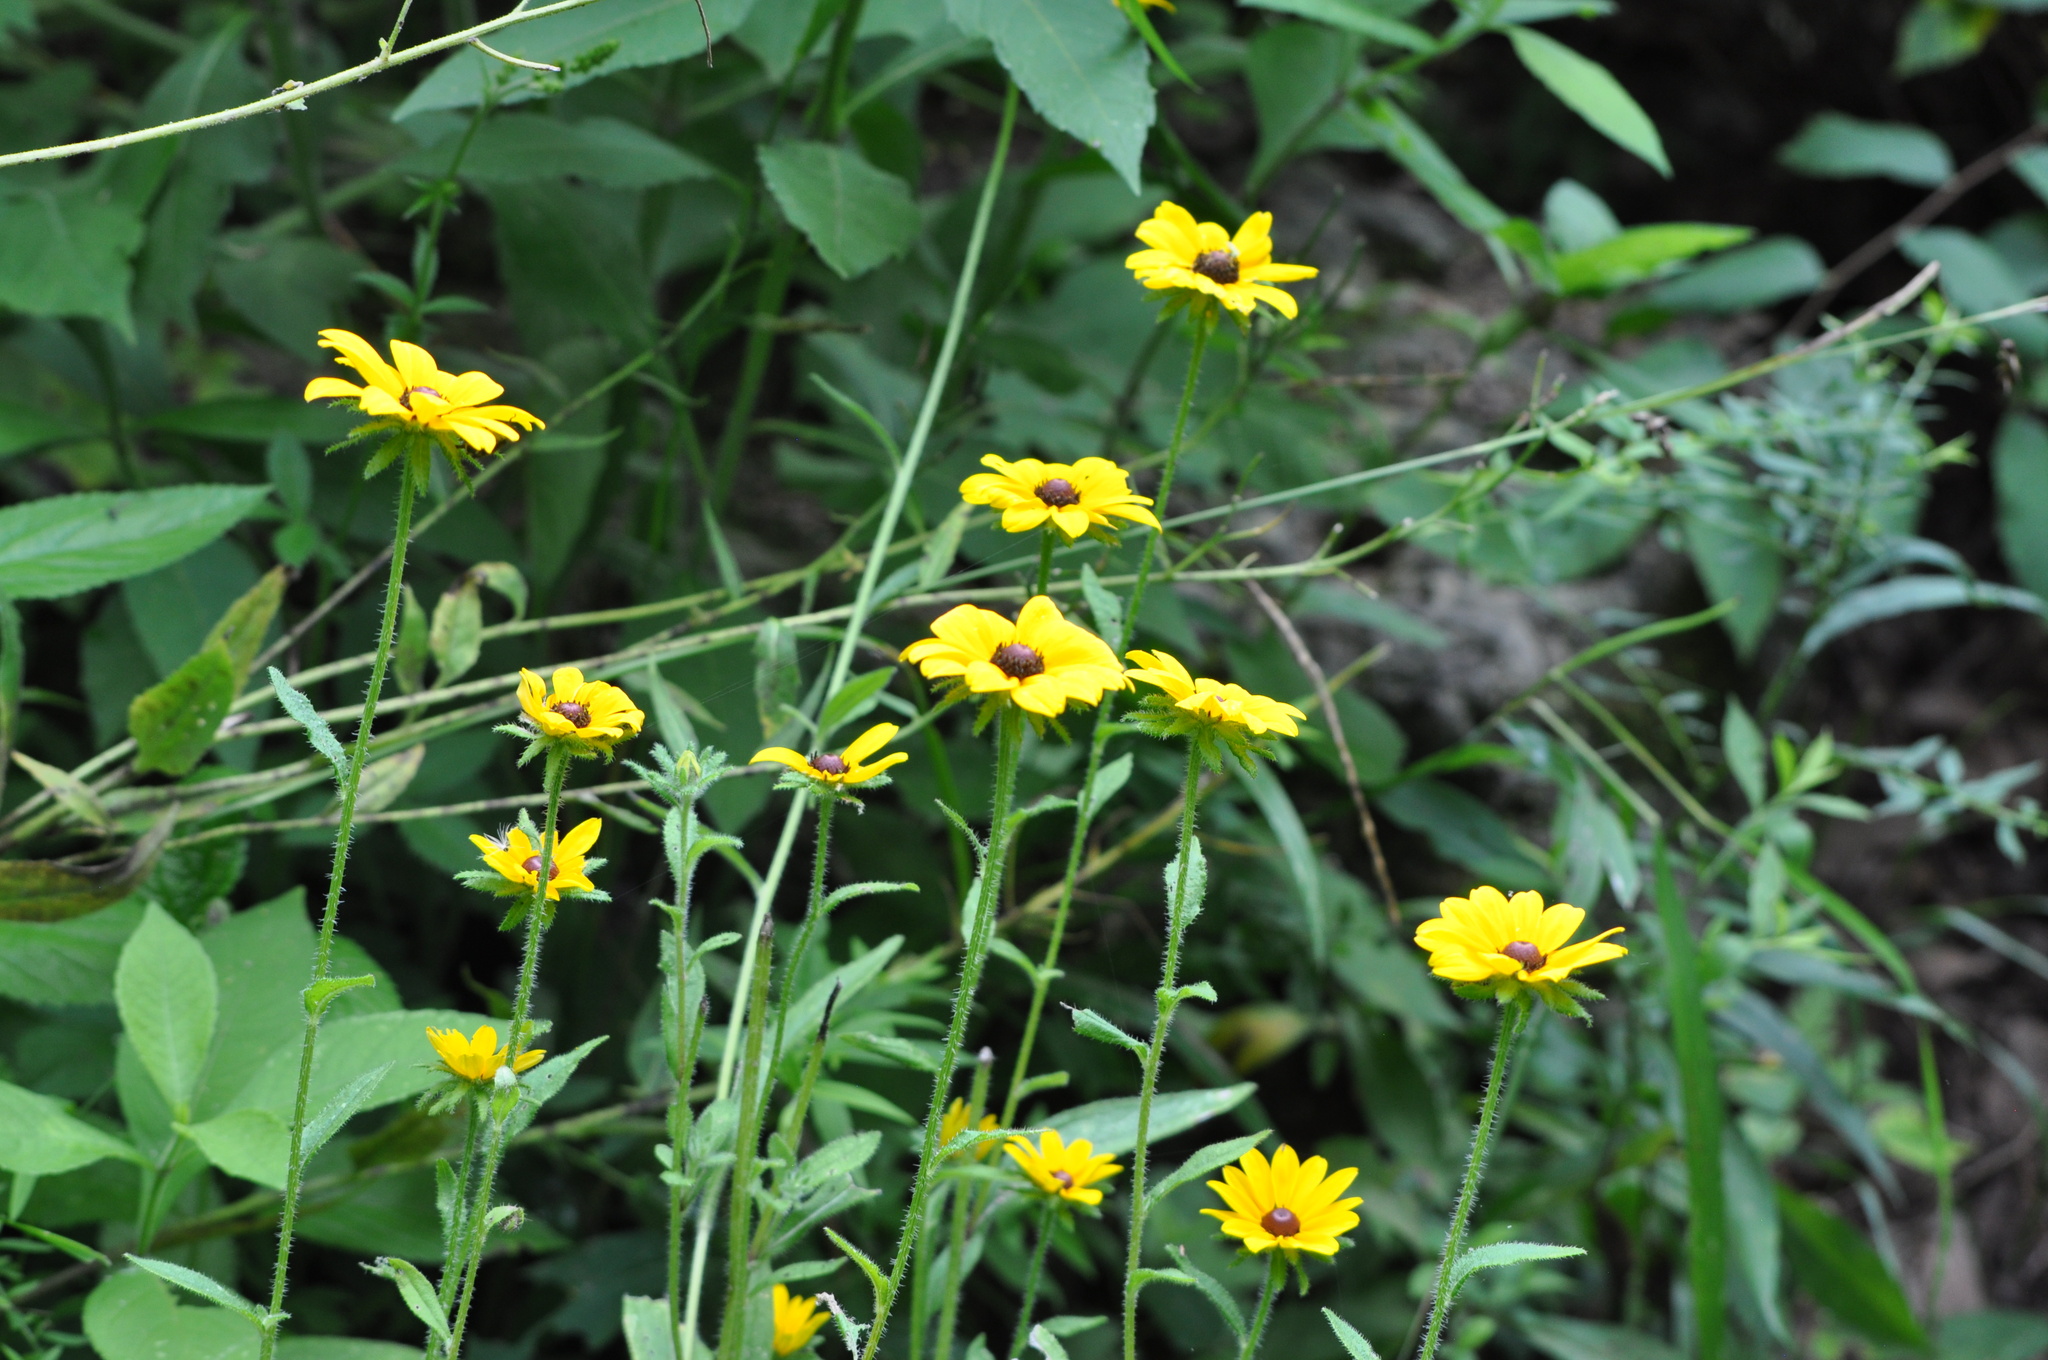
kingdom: Plantae
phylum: Tracheophyta
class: Magnoliopsida
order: Asterales
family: Asteraceae
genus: Rudbeckia
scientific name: Rudbeckia hirta
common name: Black-eyed-susan
